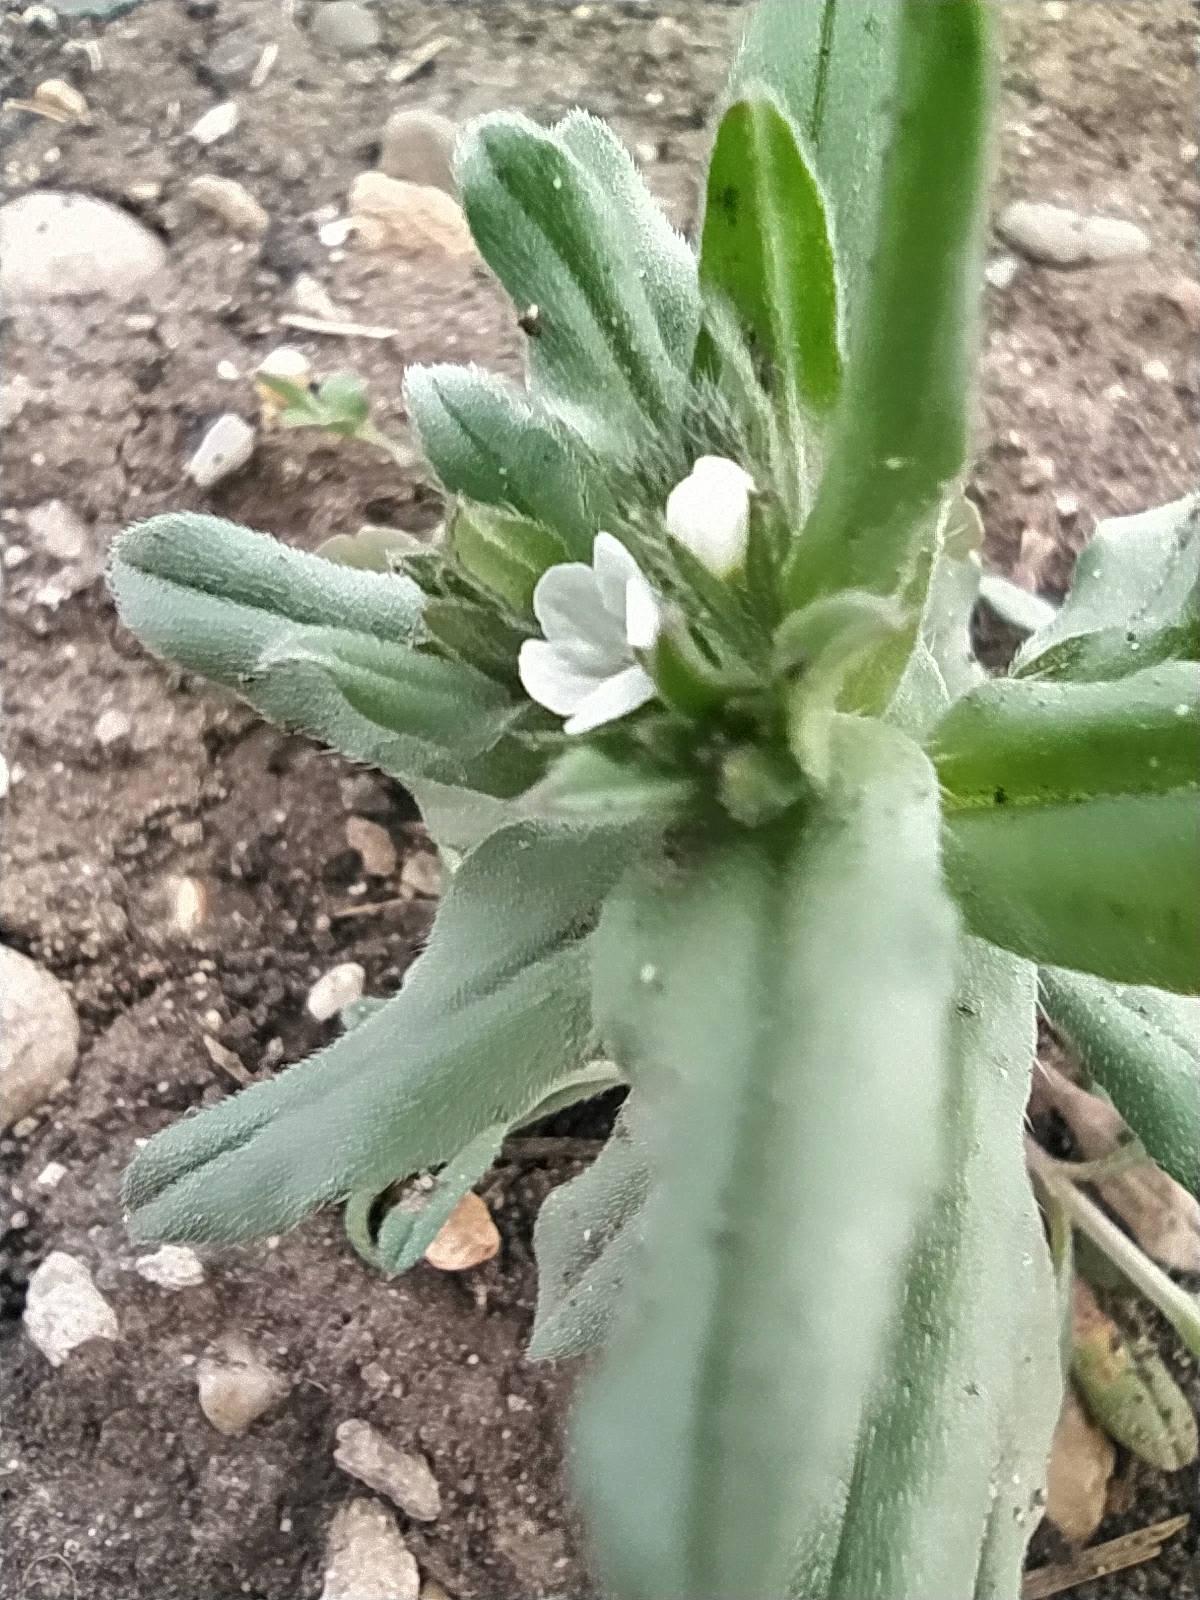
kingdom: Plantae
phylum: Tracheophyta
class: Magnoliopsida
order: Boraginales
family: Boraginaceae
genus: Buglossoides
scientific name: Buglossoides arvensis
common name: Corn gromwell
